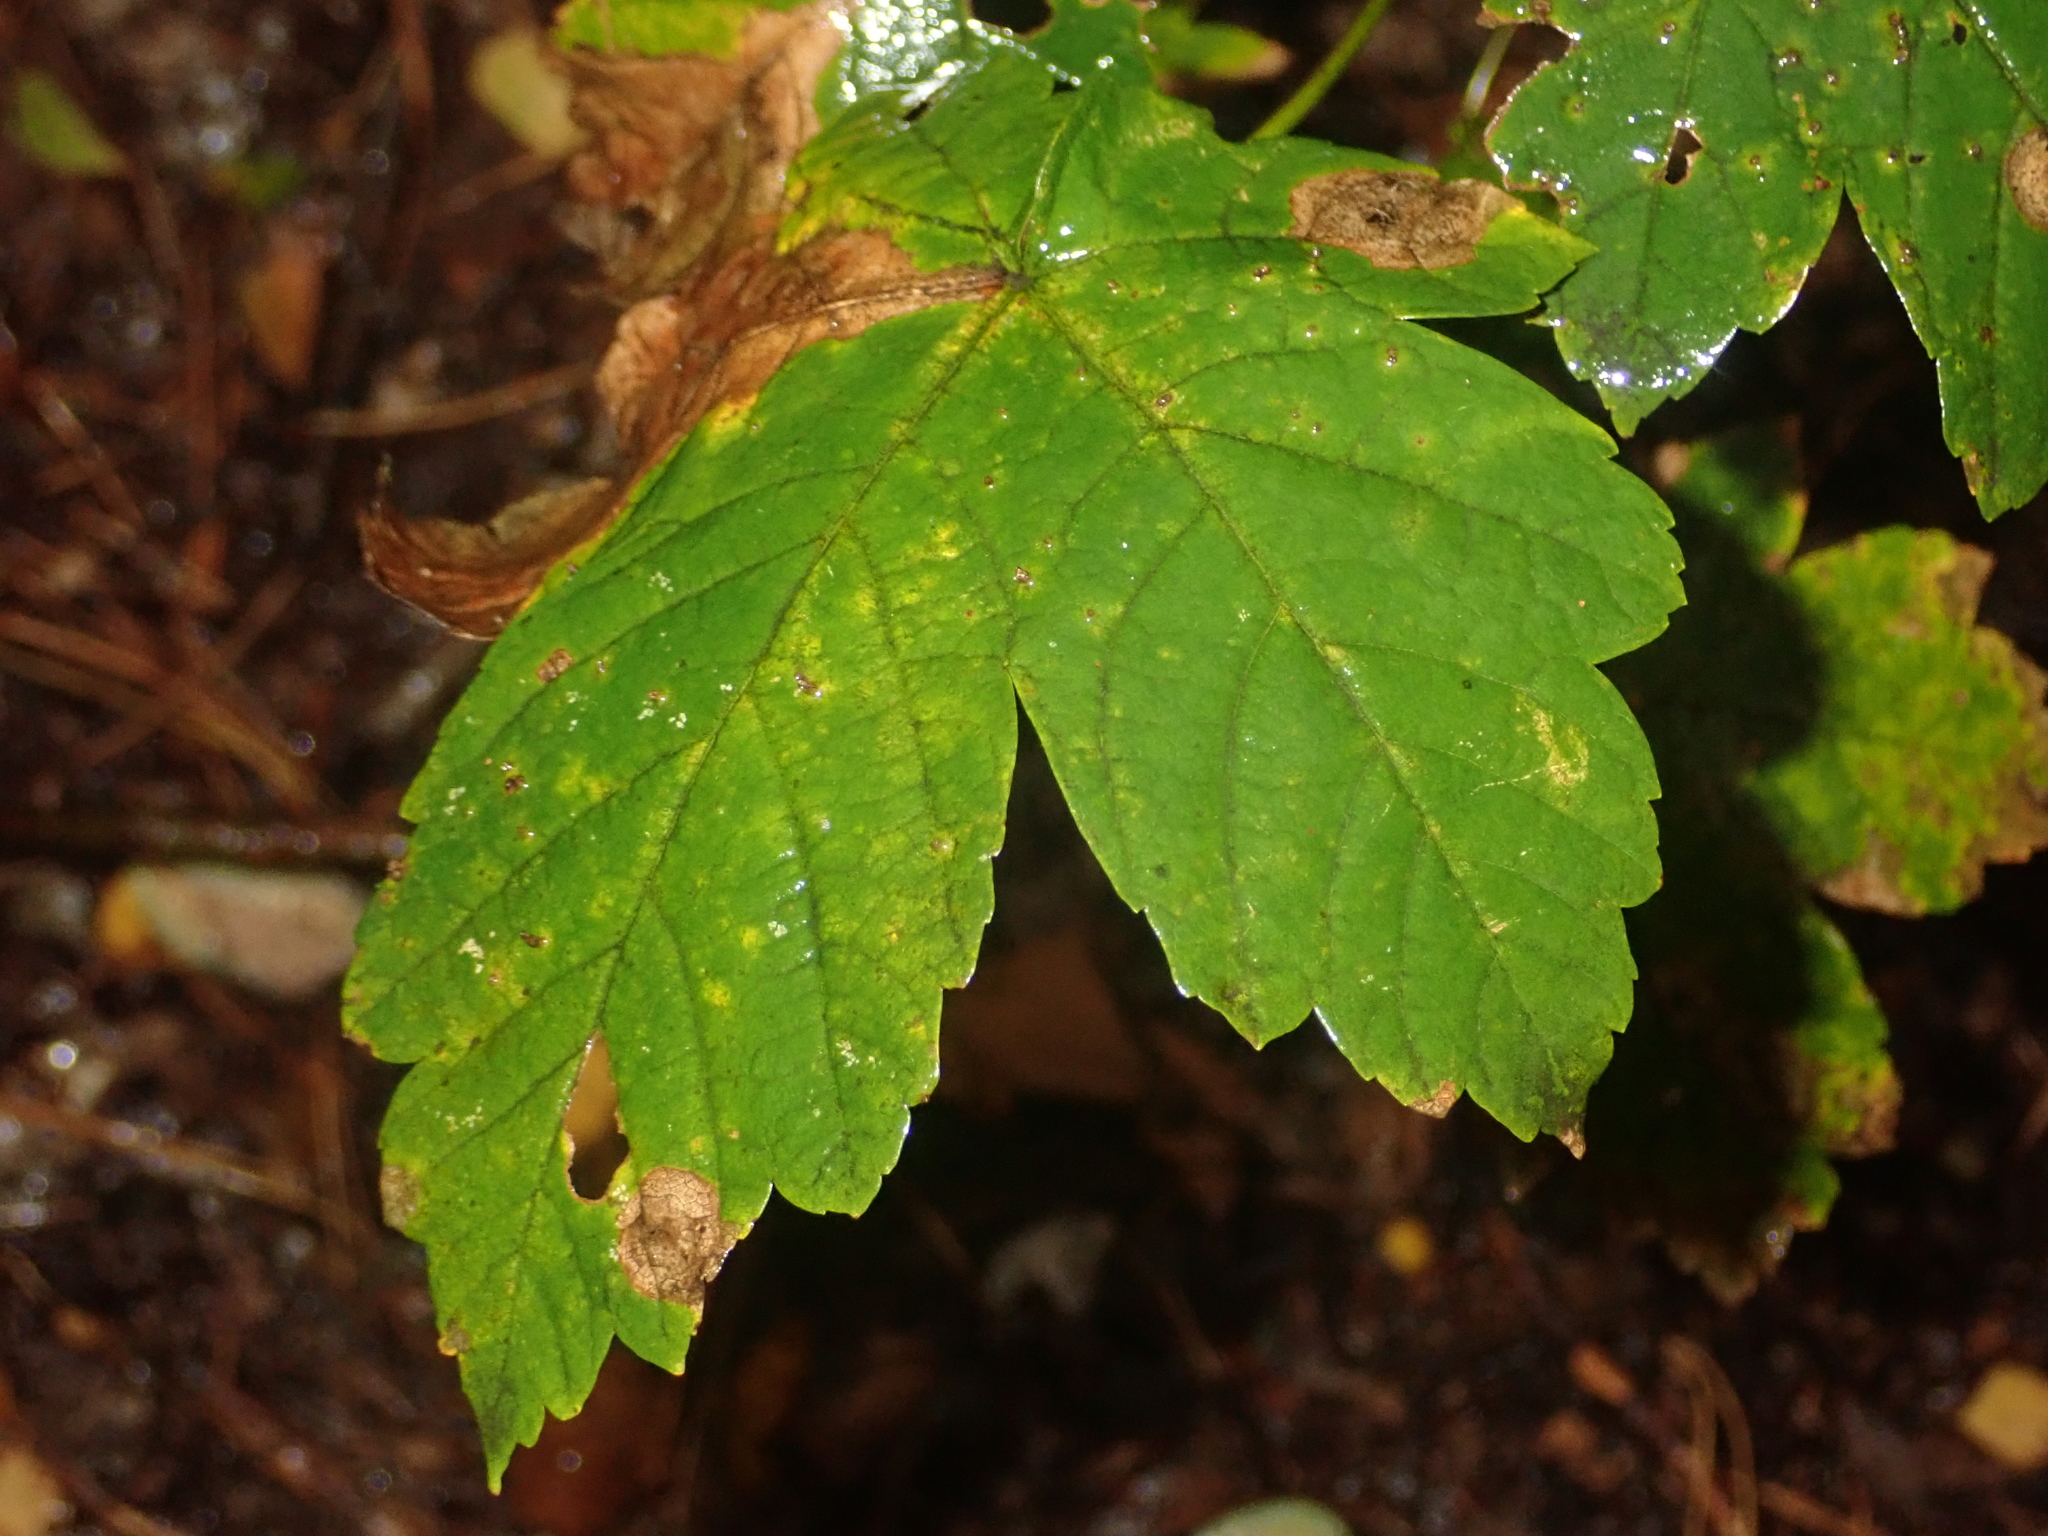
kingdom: Plantae
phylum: Tracheophyta
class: Magnoliopsida
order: Sapindales
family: Sapindaceae
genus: Acer
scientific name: Acer pseudoplatanus
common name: Sycamore
